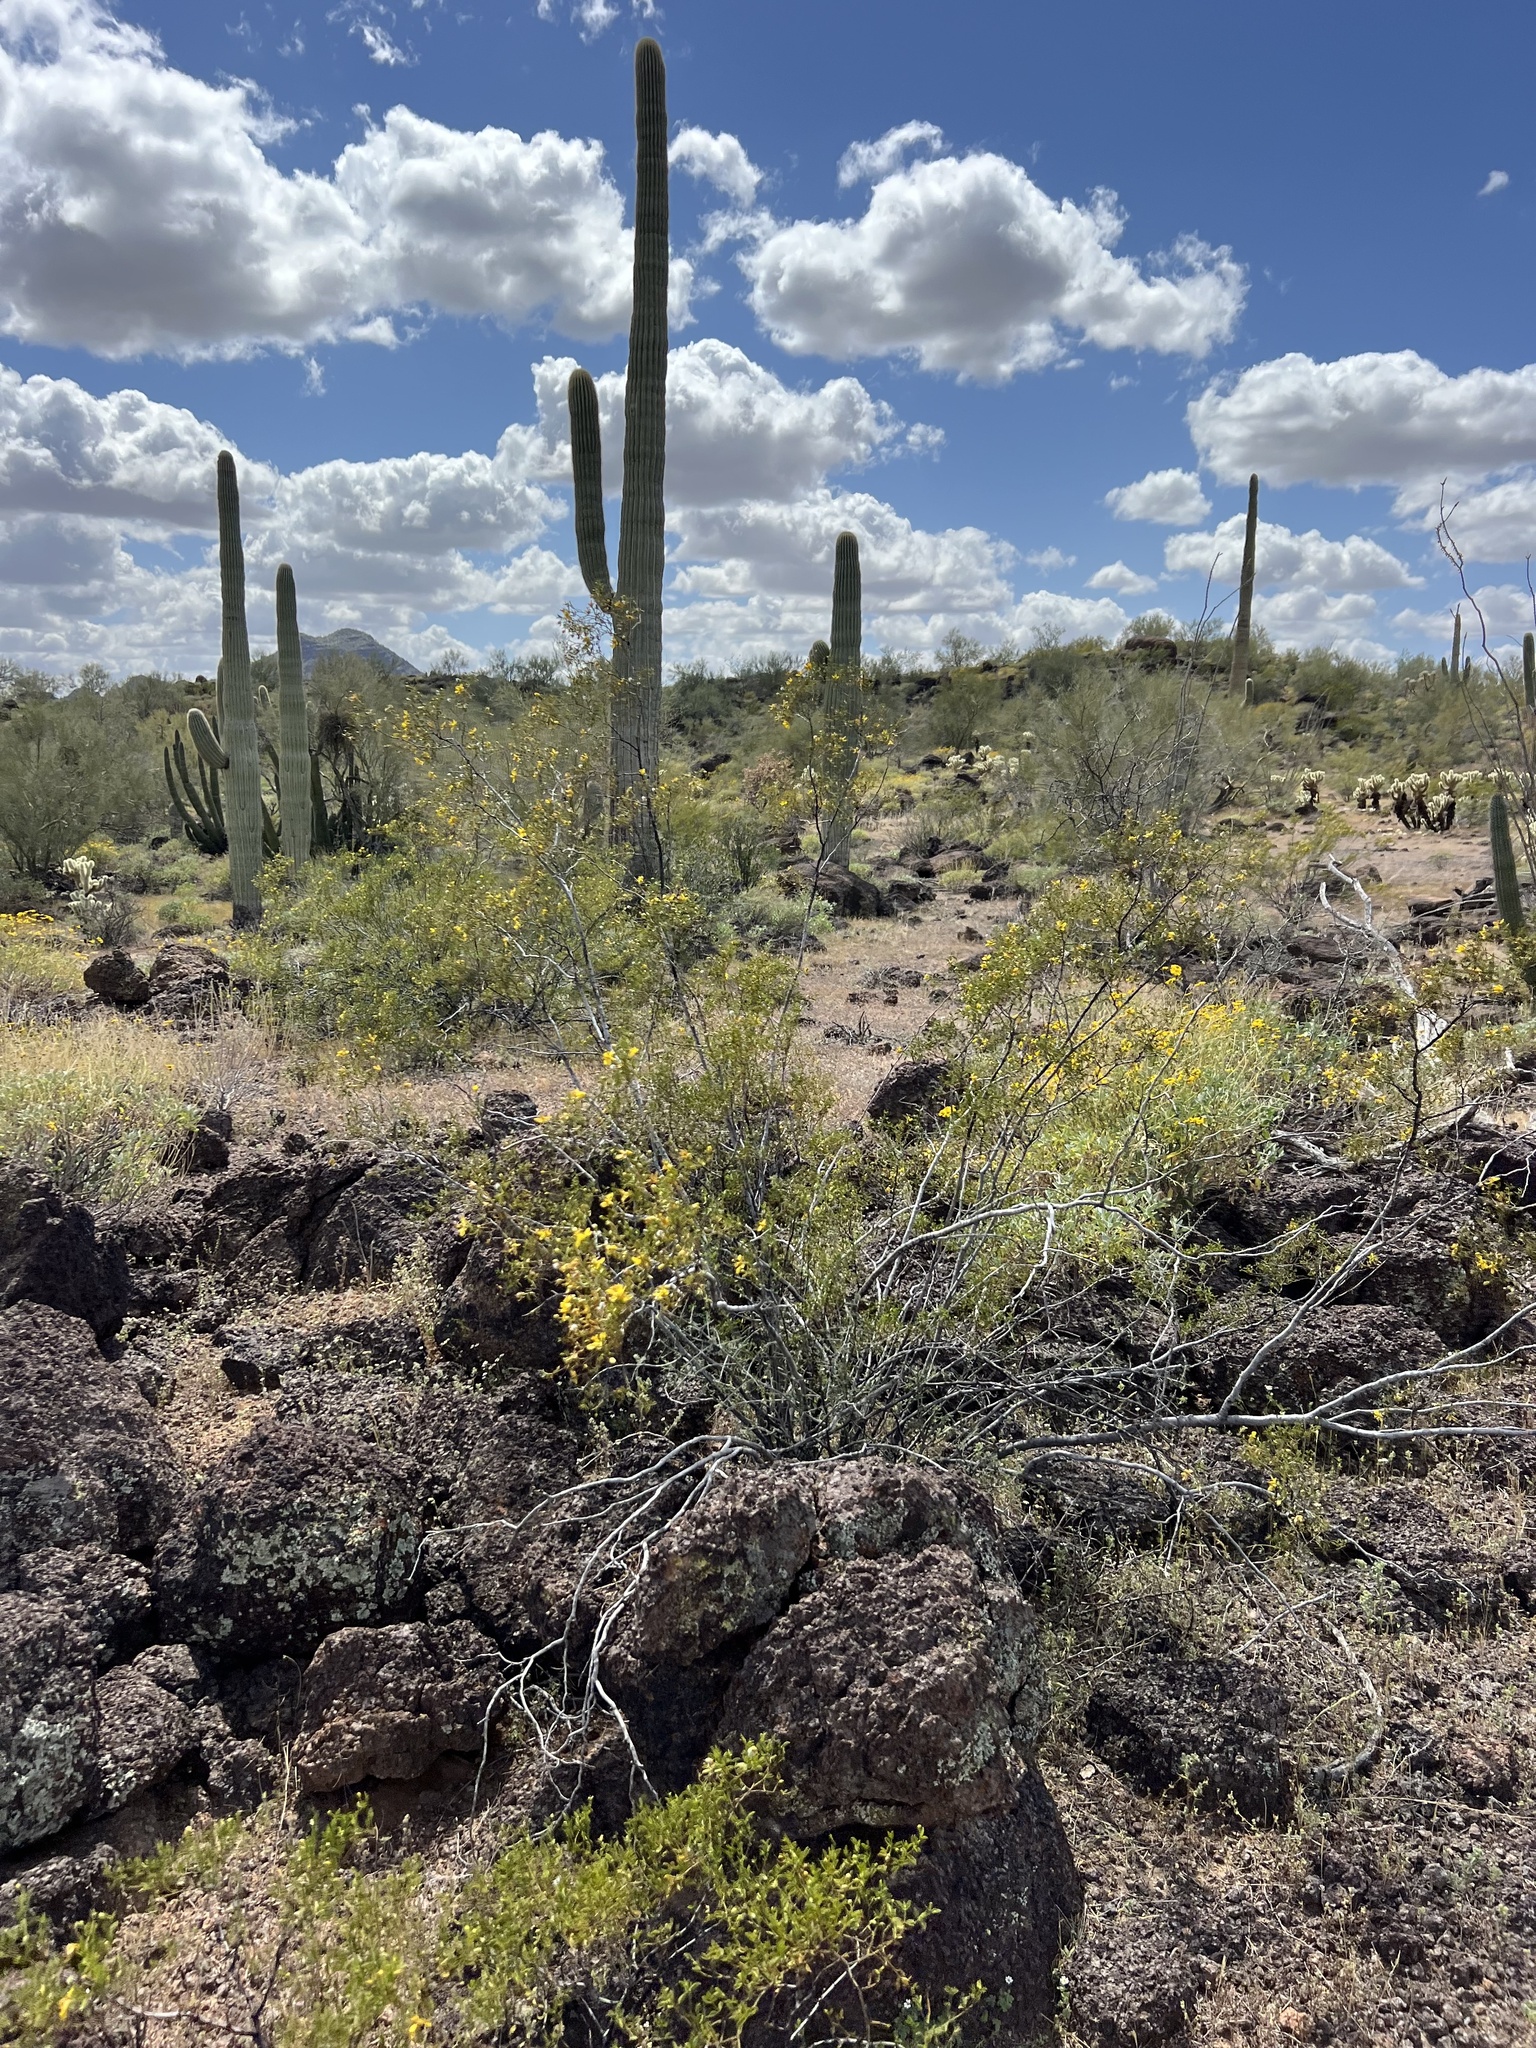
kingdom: Plantae
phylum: Tracheophyta
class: Magnoliopsida
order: Zygophyllales
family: Zygophyllaceae
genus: Larrea
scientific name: Larrea tridentata
